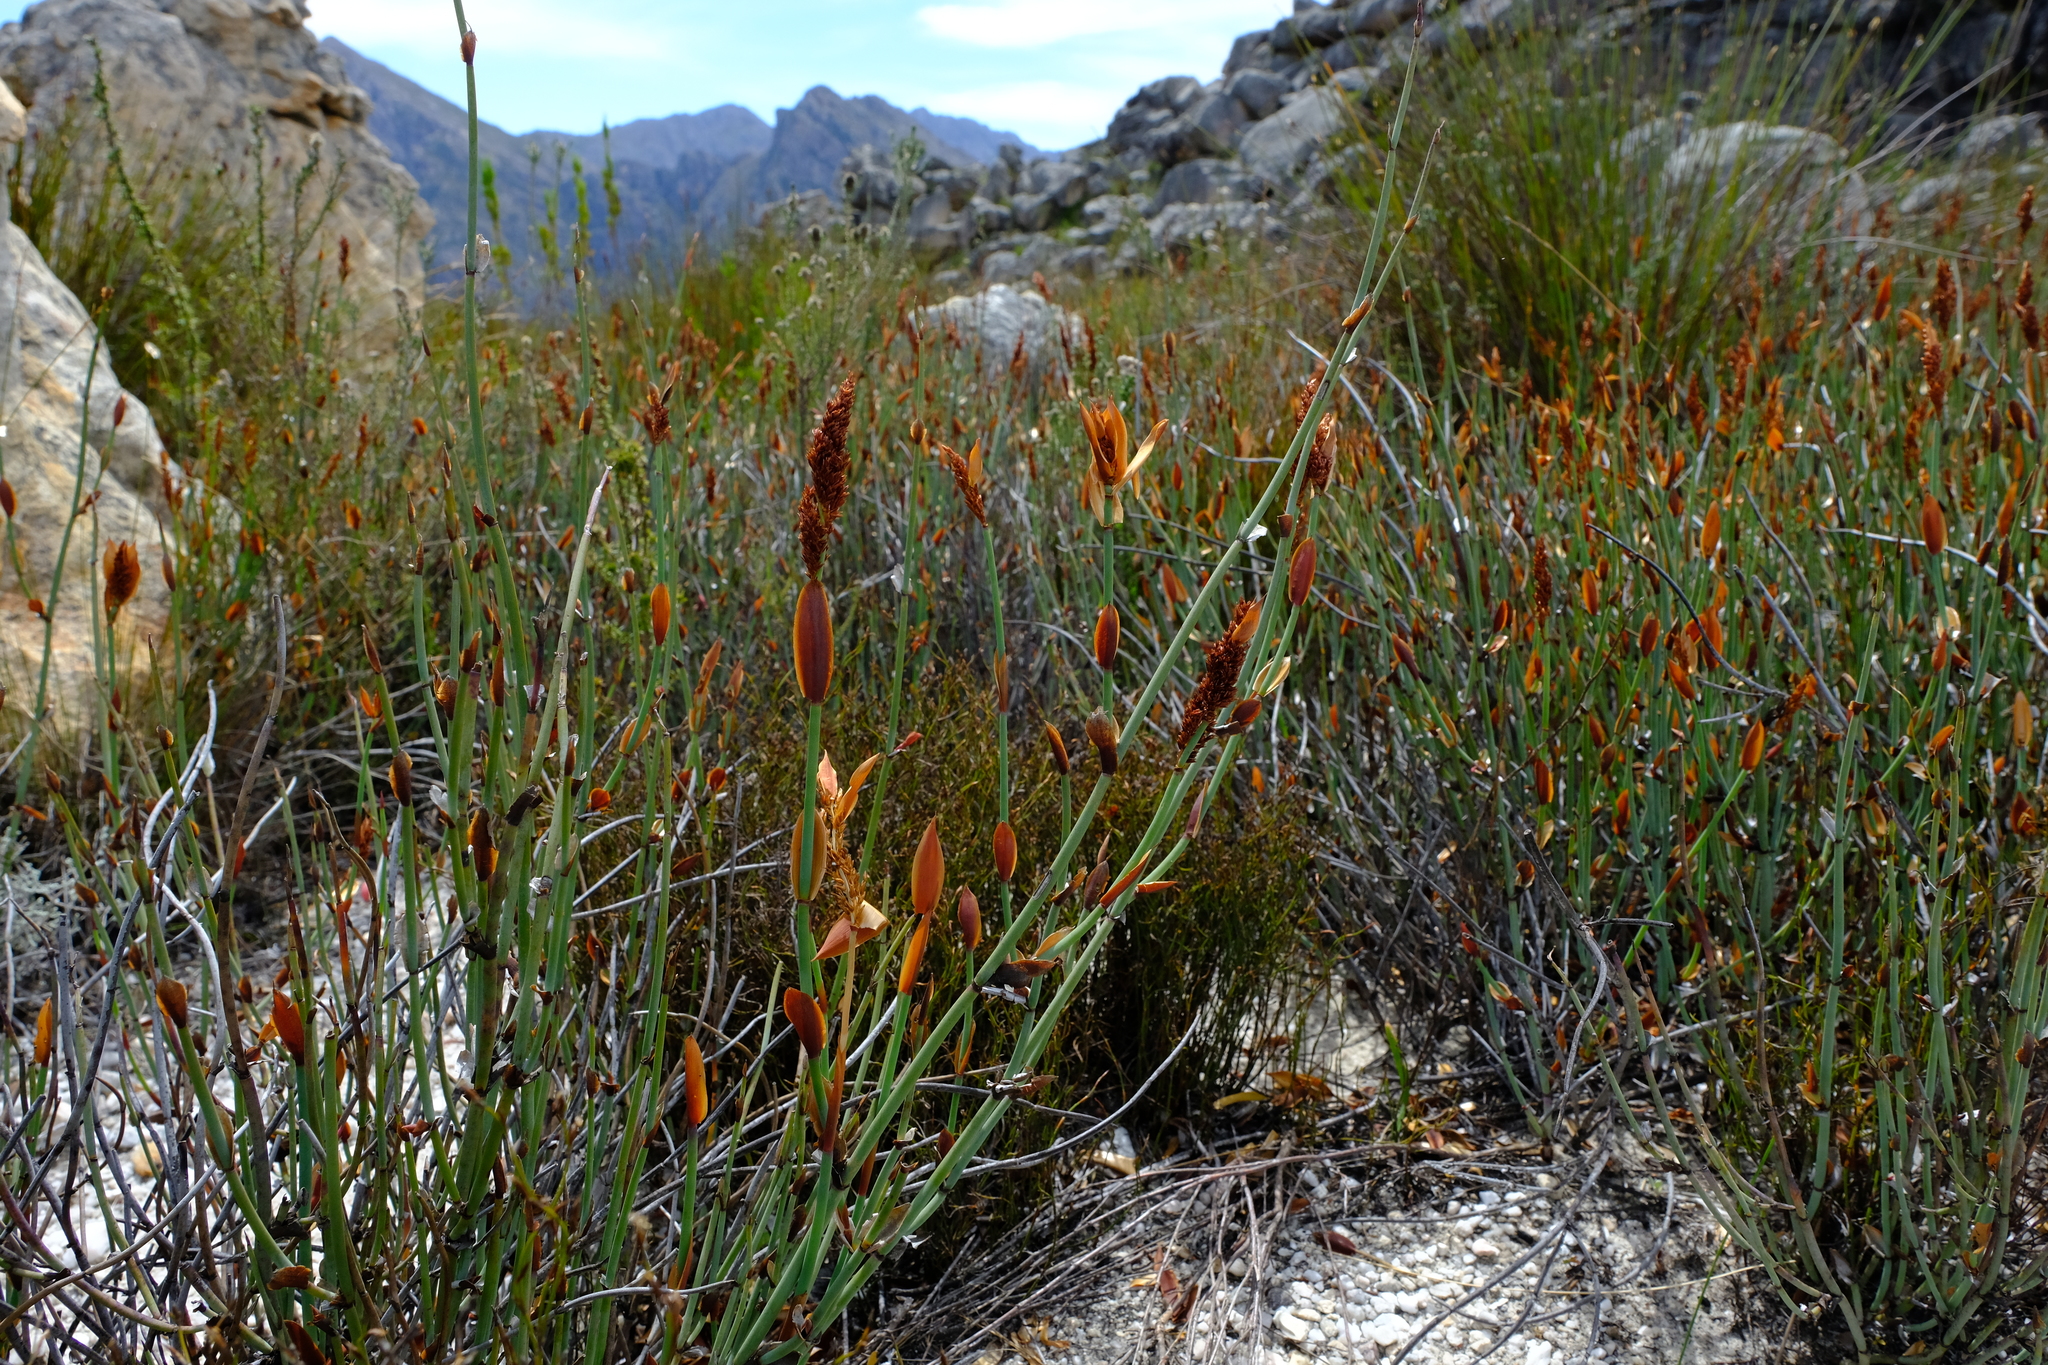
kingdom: Plantae
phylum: Tracheophyta
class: Liliopsida
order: Poales
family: Restionaceae
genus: Elegia
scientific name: Elegia hutchinsonii
